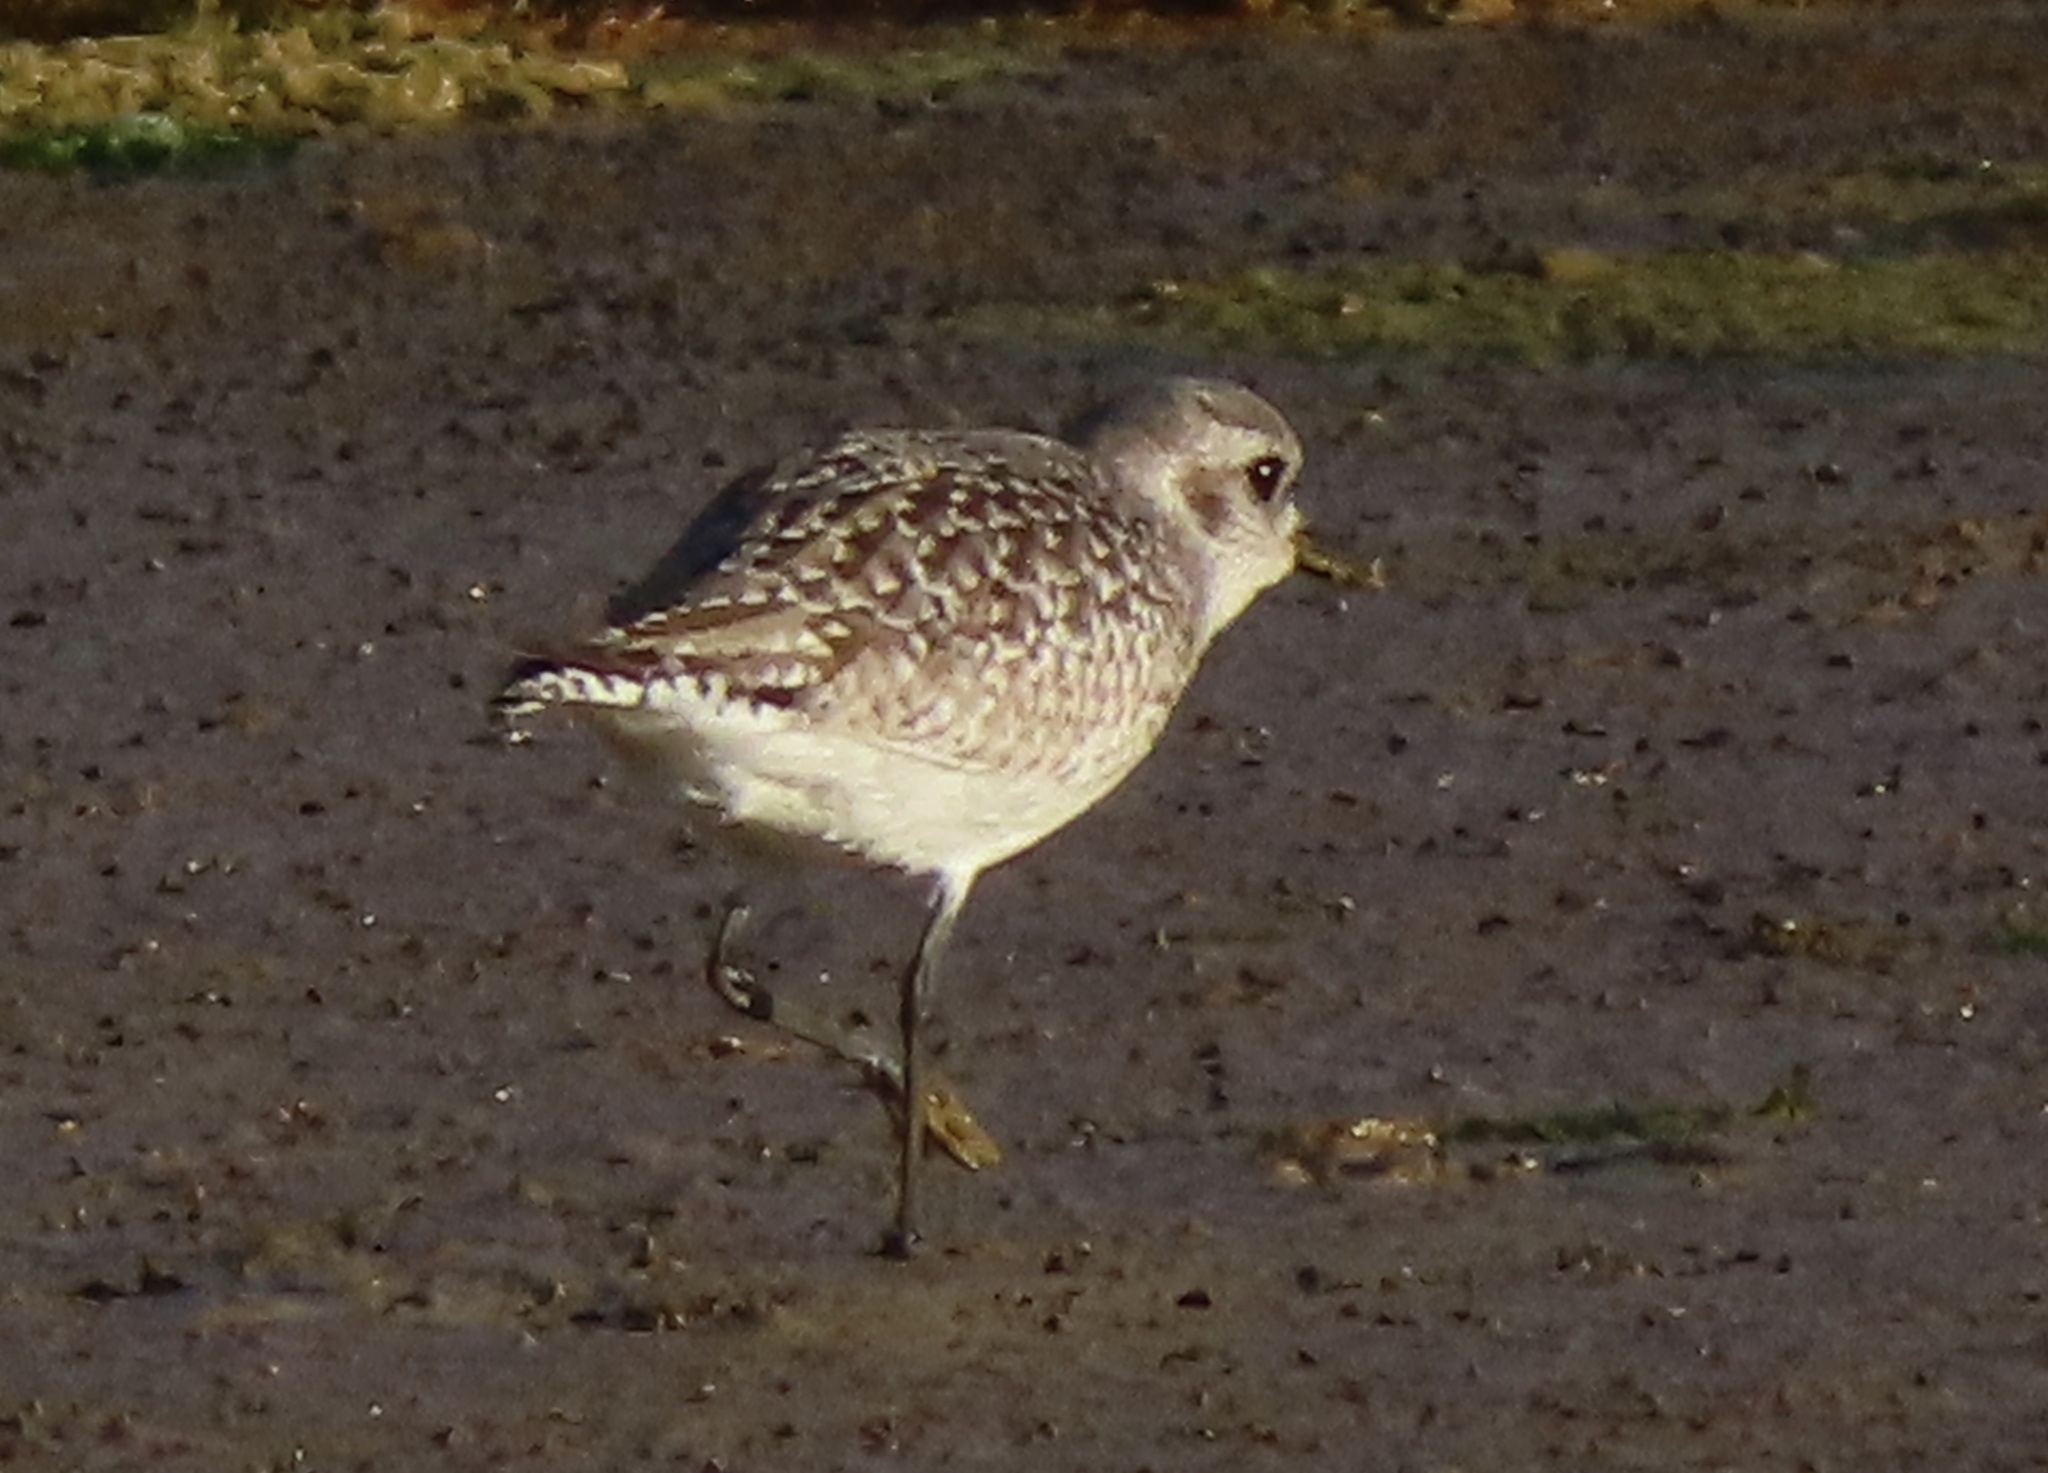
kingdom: Animalia
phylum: Chordata
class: Aves
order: Charadriiformes
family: Charadriidae
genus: Pluvialis
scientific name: Pluvialis squatarola
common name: Grey plover
